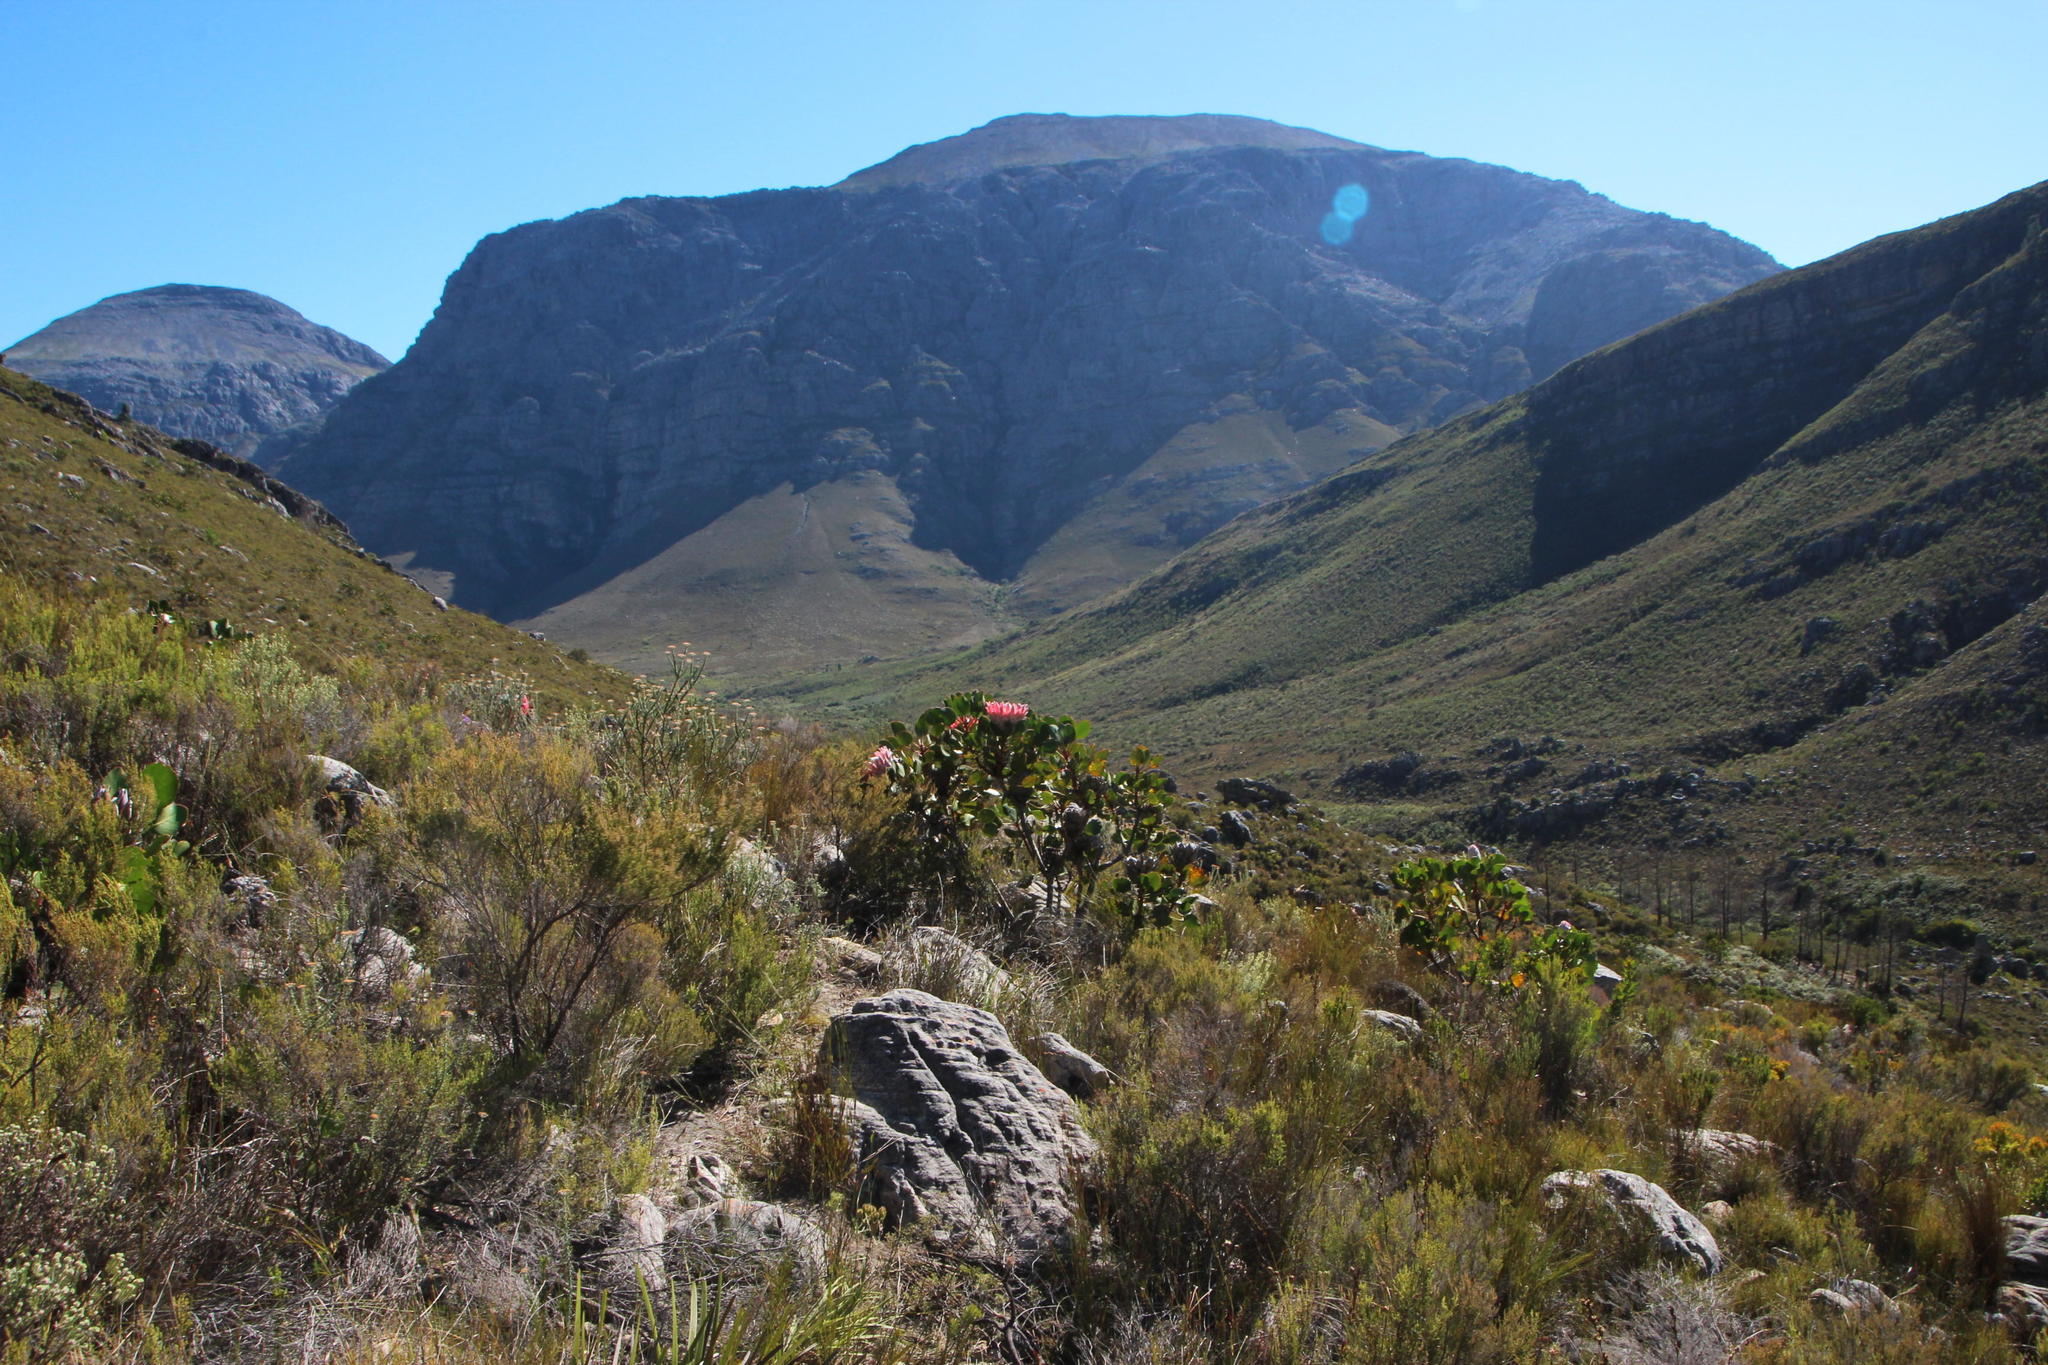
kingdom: Plantae
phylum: Tracheophyta
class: Magnoliopsida
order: Proteales
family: Proteaceae
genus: Protea
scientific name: Protea cynaroides
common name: King protea
